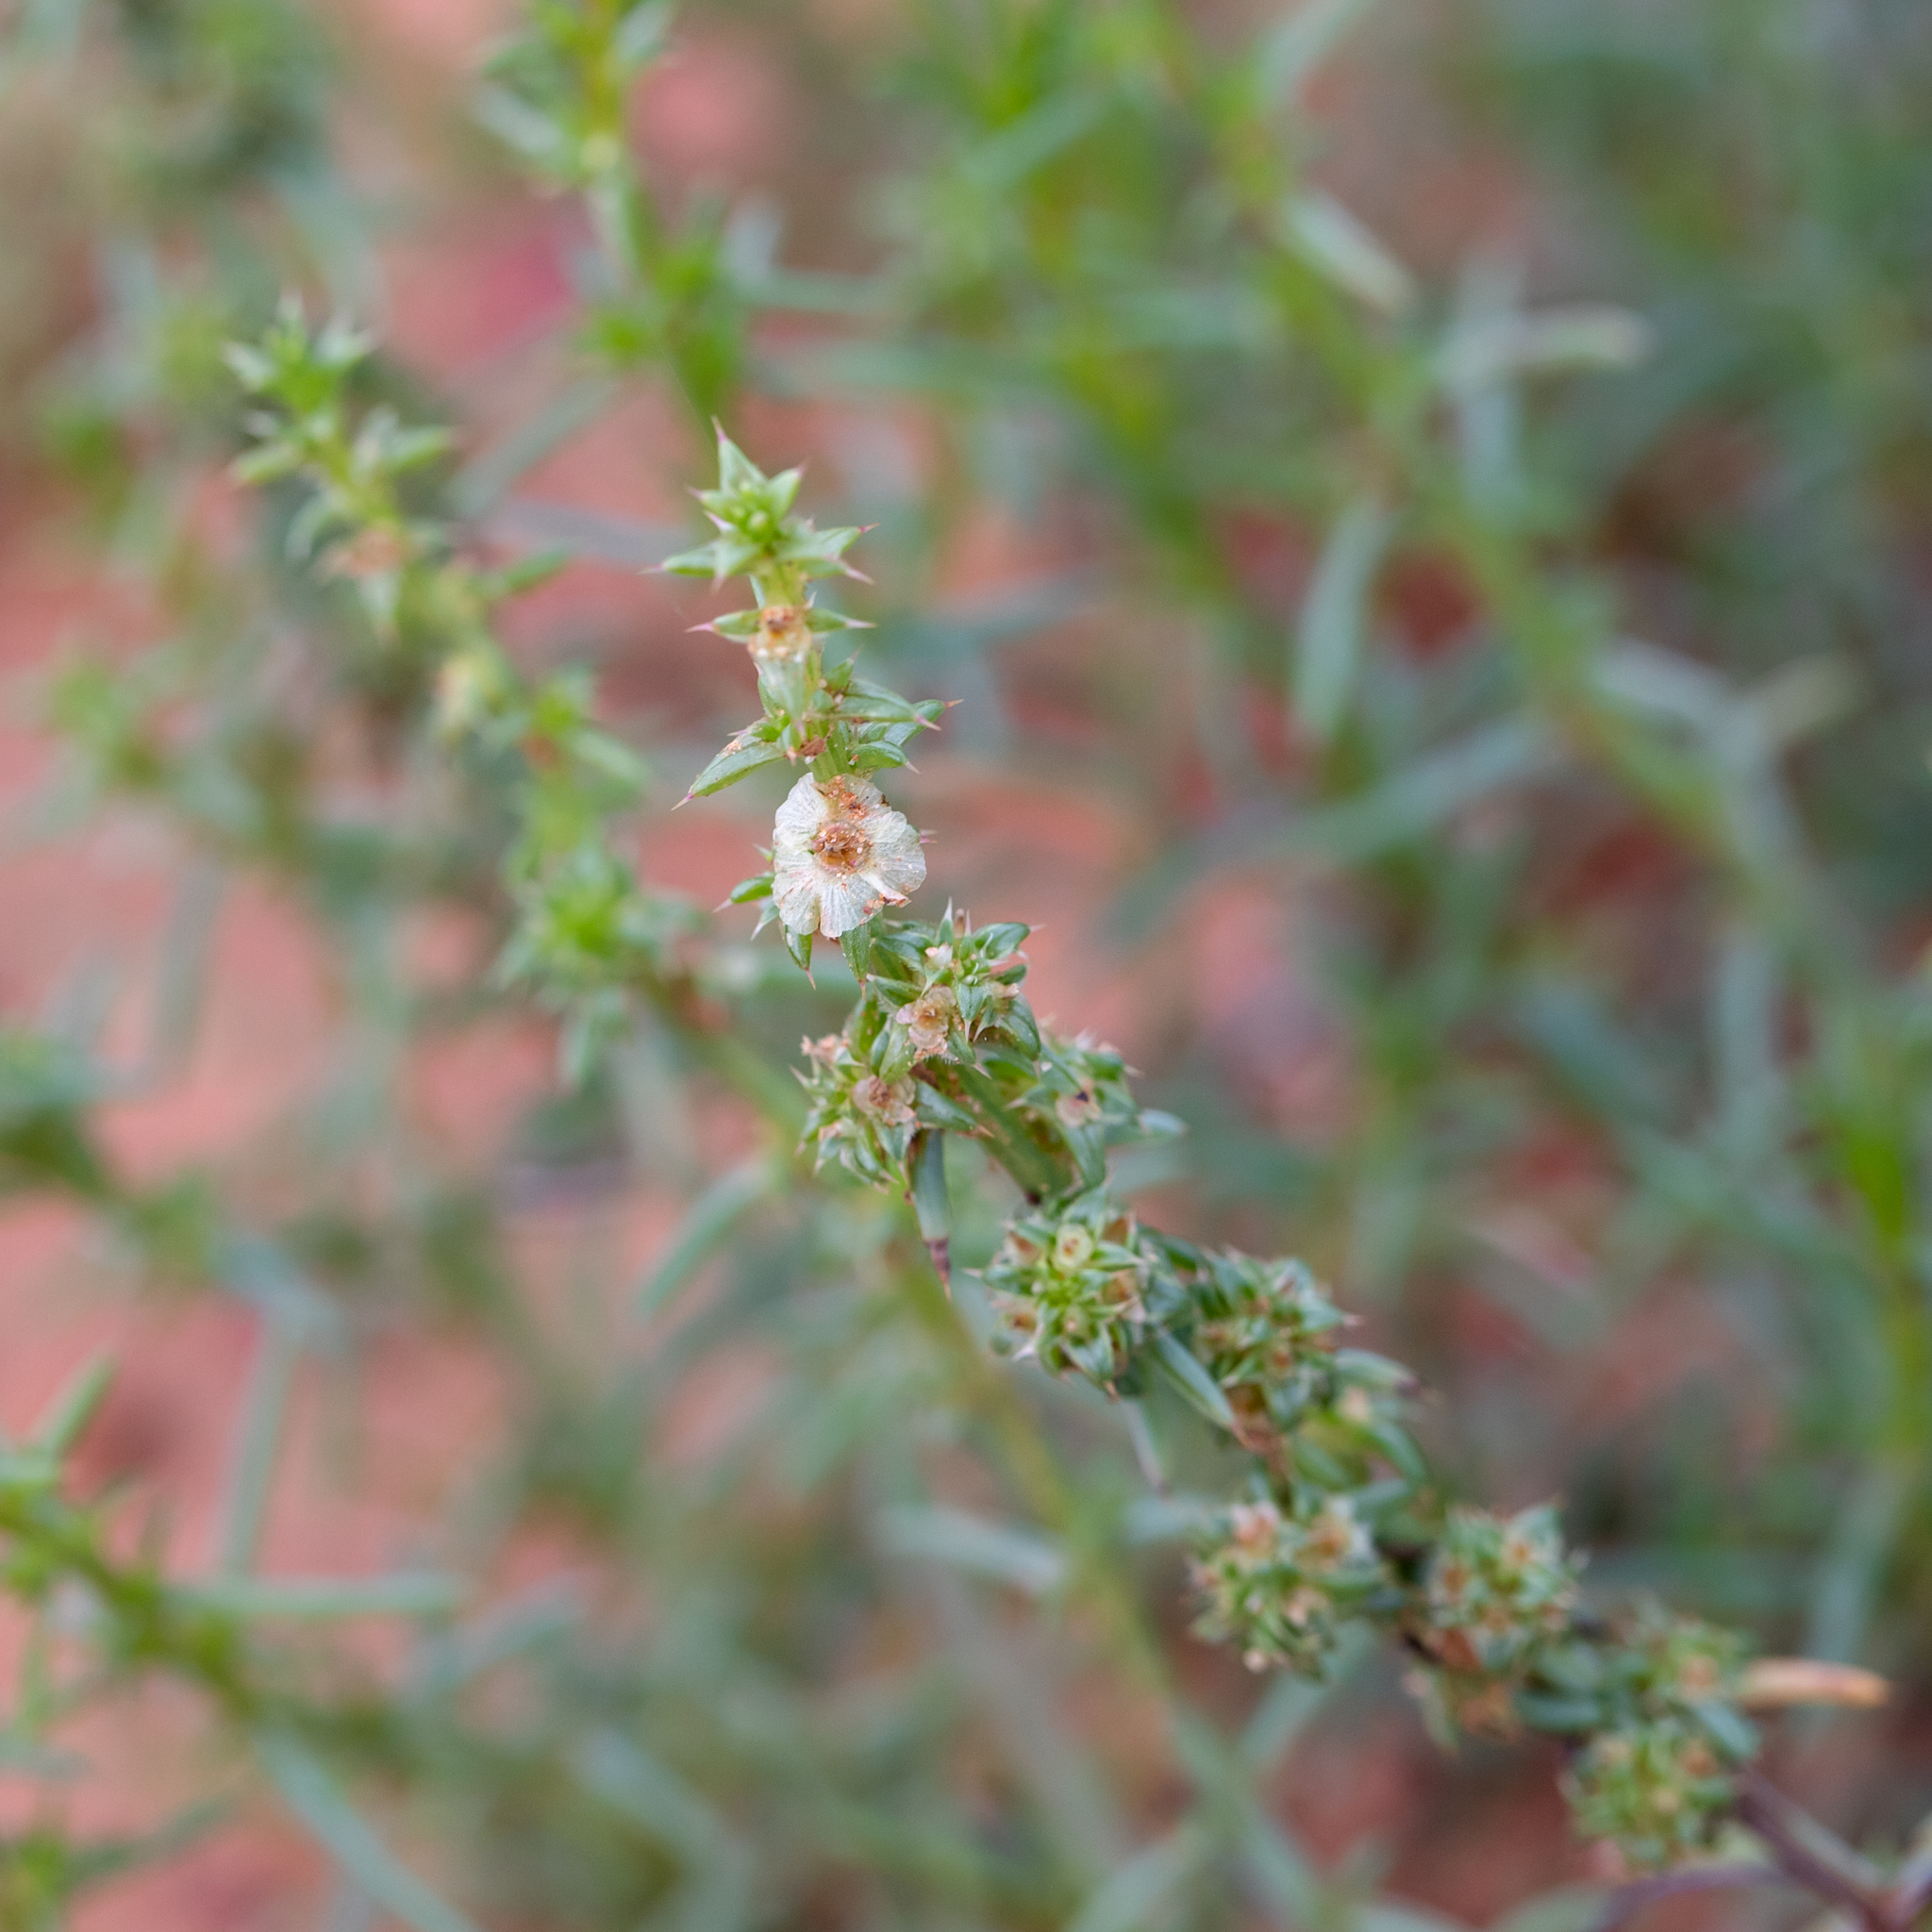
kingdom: Plantae
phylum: Tracheophyta
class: Magnoliopsida
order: Caryophyllales
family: Amaranthaceae
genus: Salsola
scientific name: Salsola australis
